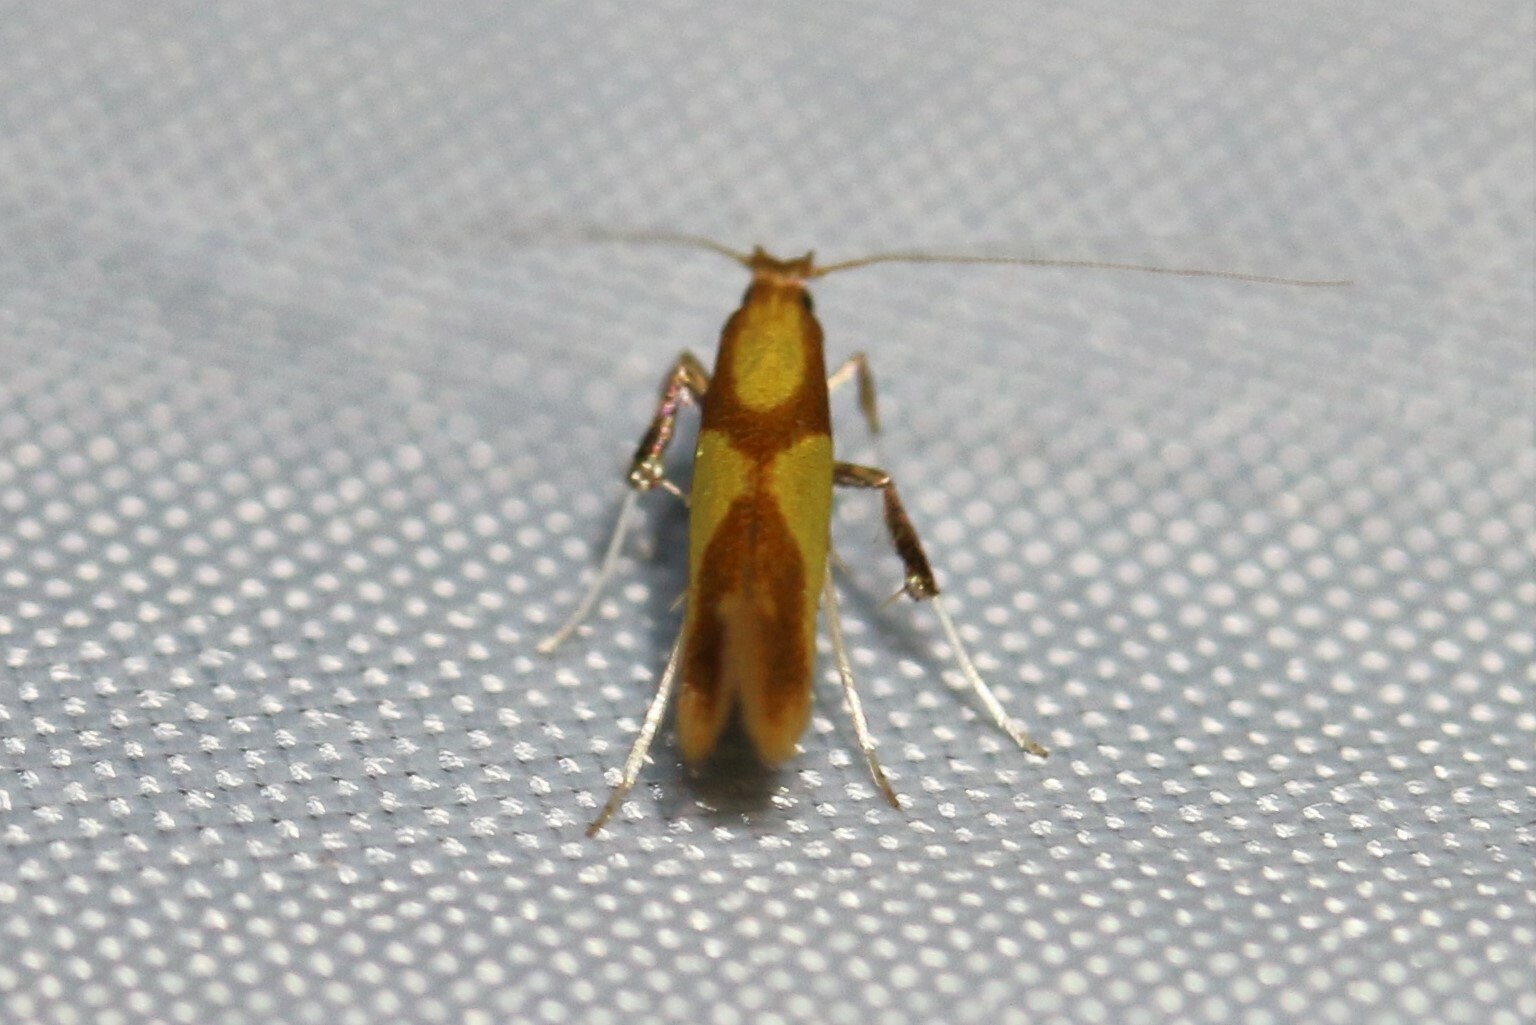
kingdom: Animalia
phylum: Arthropoda
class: Insecta
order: Lepidoptera
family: Gracillariidae
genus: Caloptilia
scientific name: Caloptilia alchimiella
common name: Yellow-triangle slender
